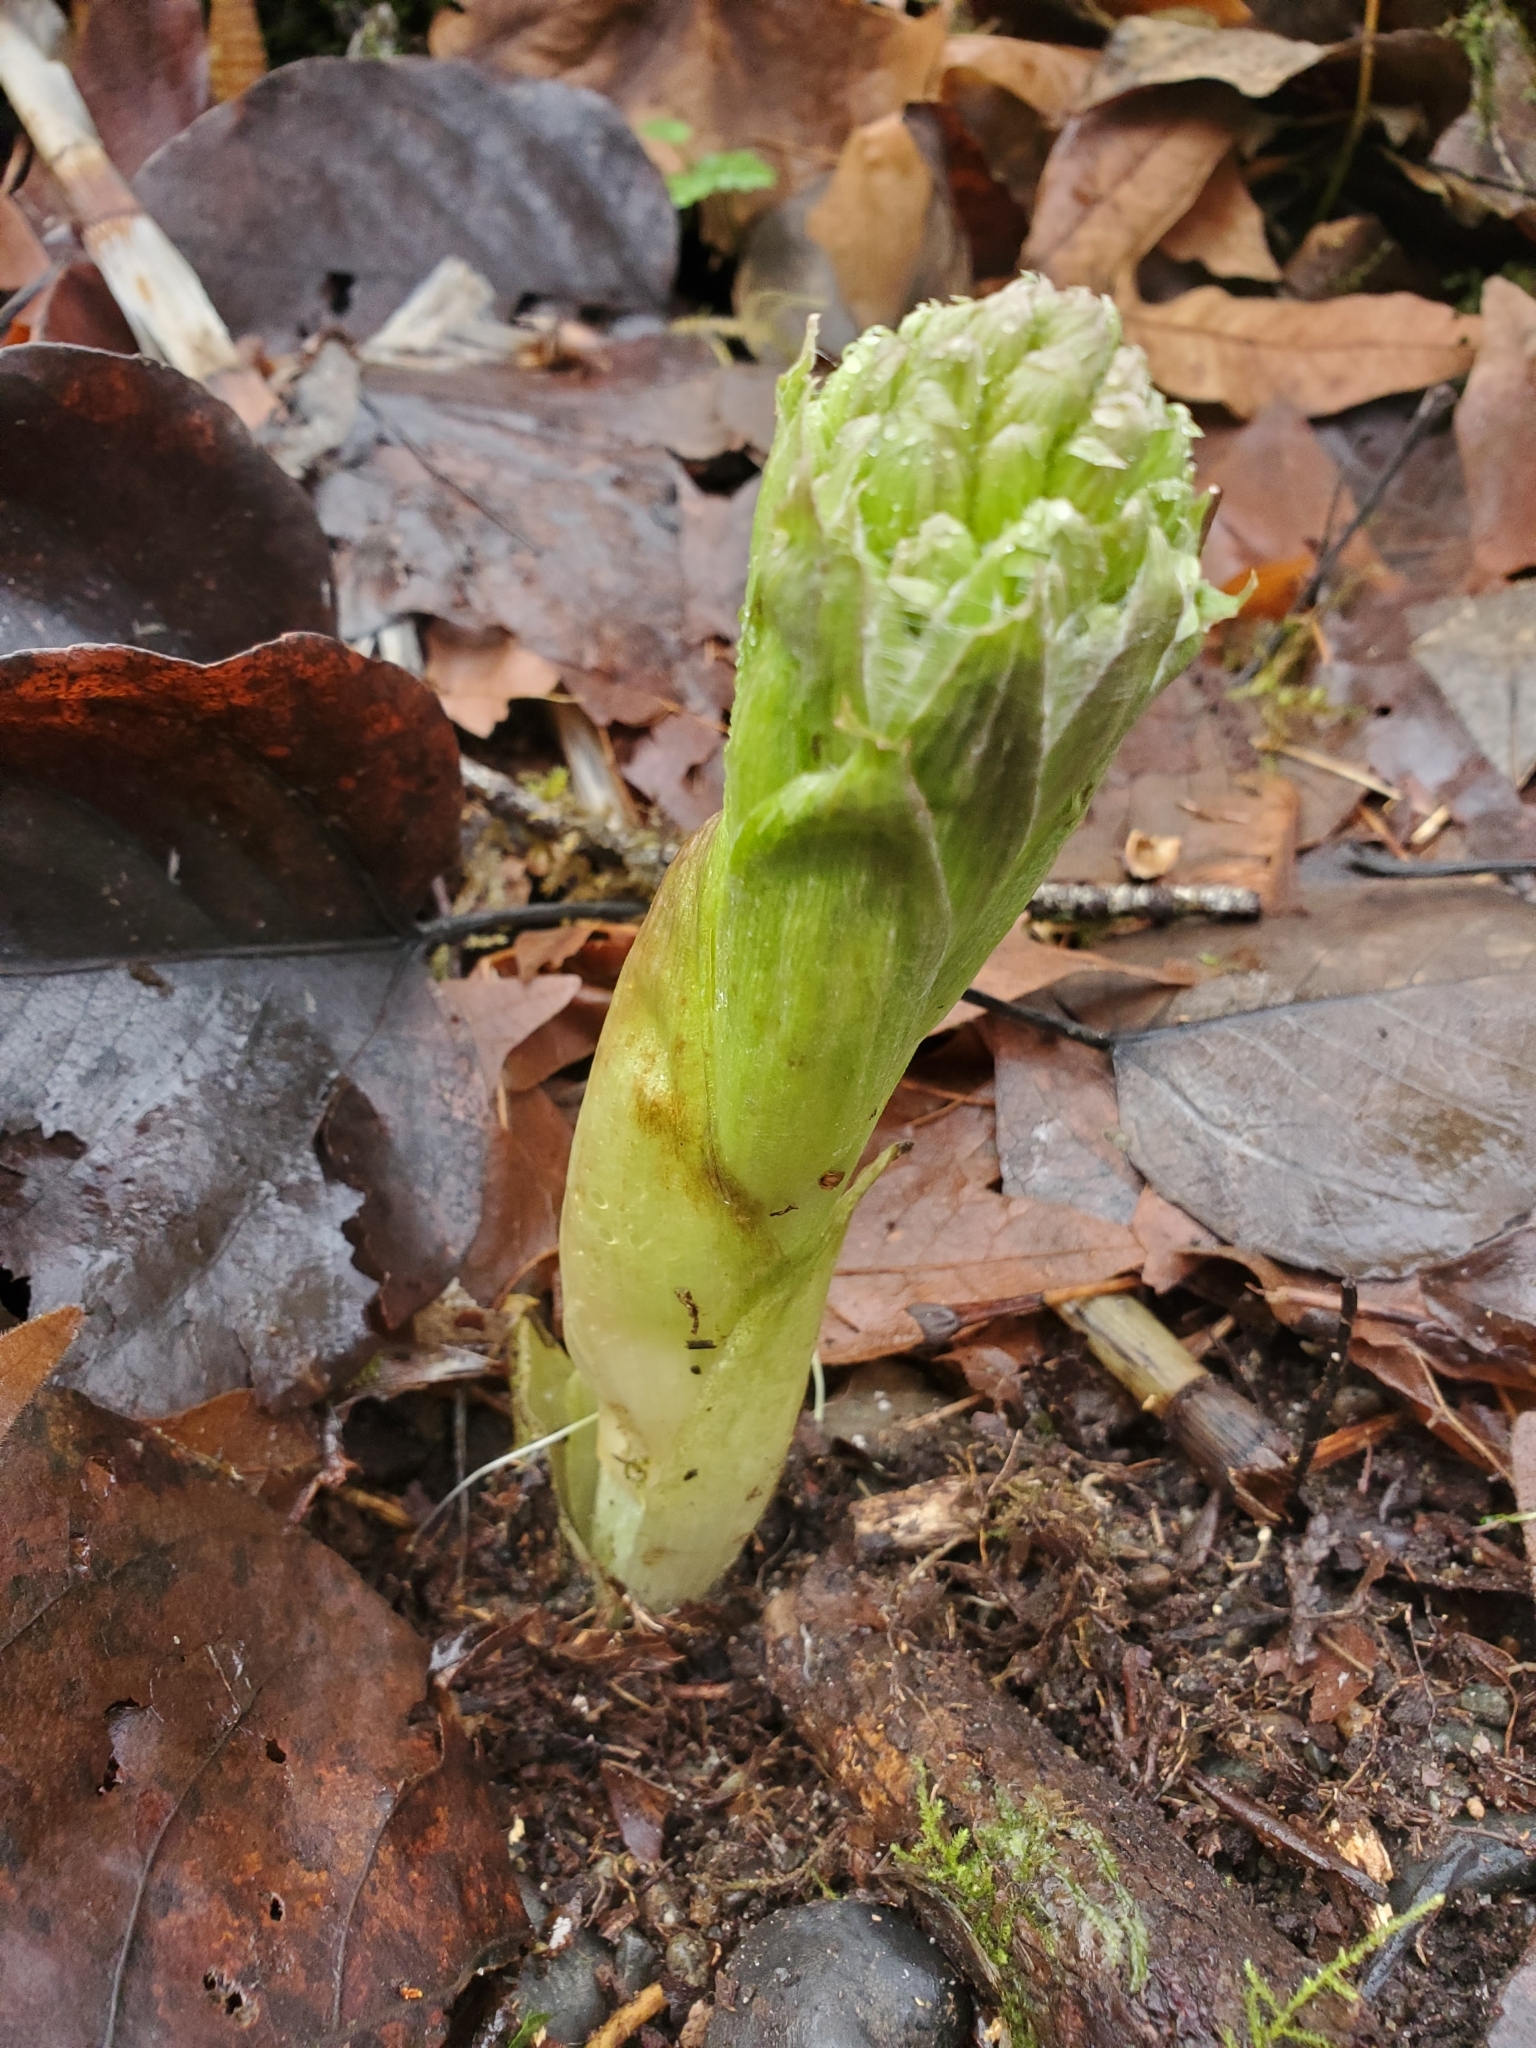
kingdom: Plantae
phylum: Tracheophyta
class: Magnoliopsida
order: Asterales
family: Asteraceae
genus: Petasites
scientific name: Petasites frigidus
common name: Arctic butterbur
